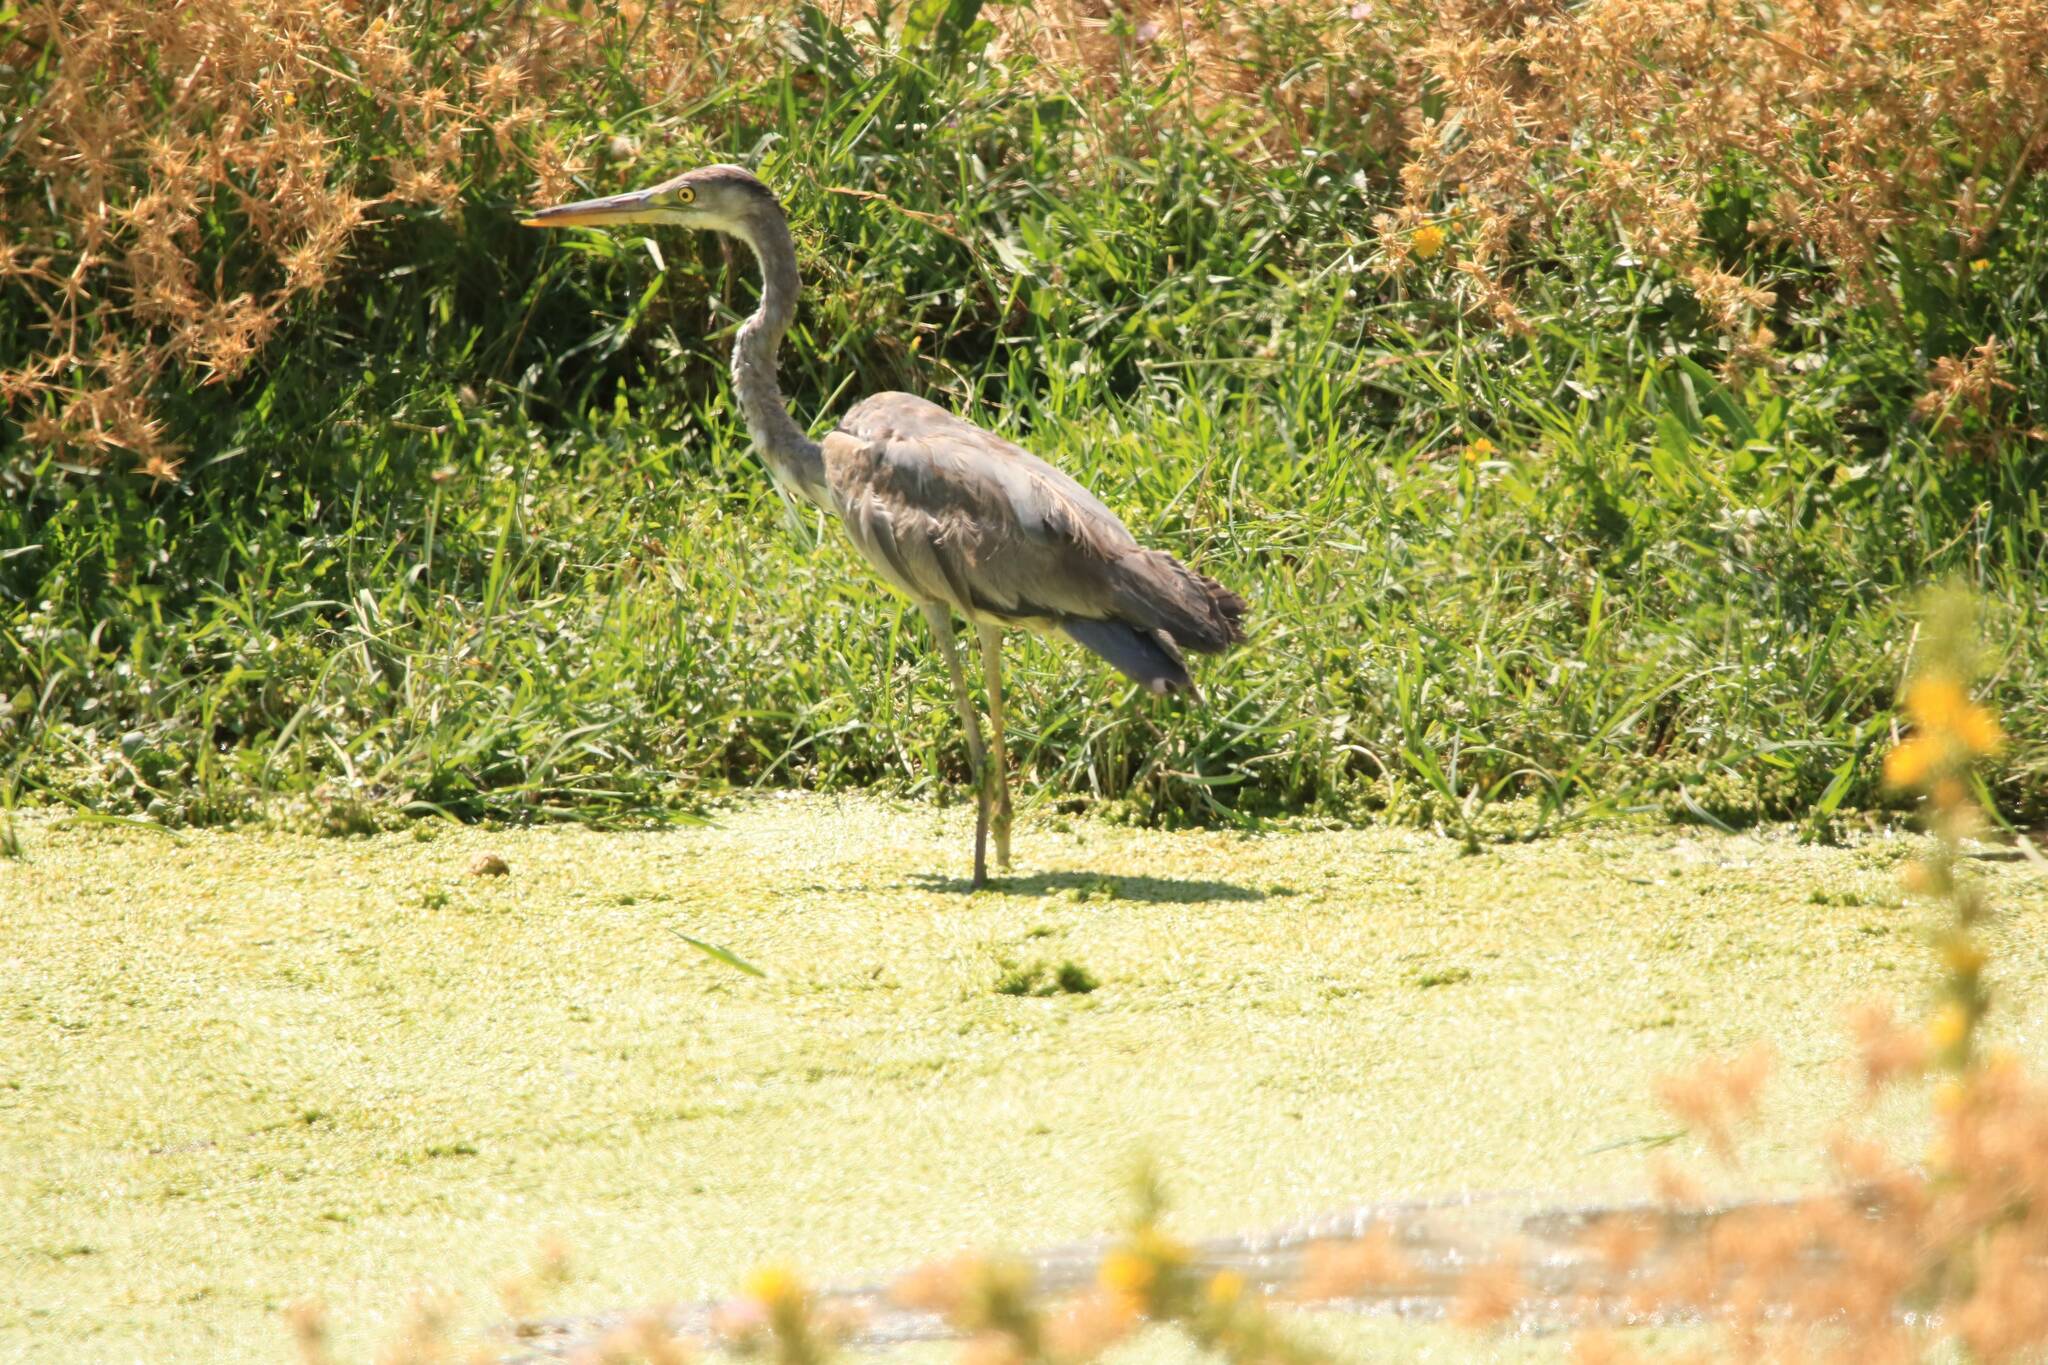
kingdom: Animalia
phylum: Chordata
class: Aves
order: Pelecaniformes
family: Ardeidae
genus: Ardea
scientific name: Ardea cinerea
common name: Grey heron
